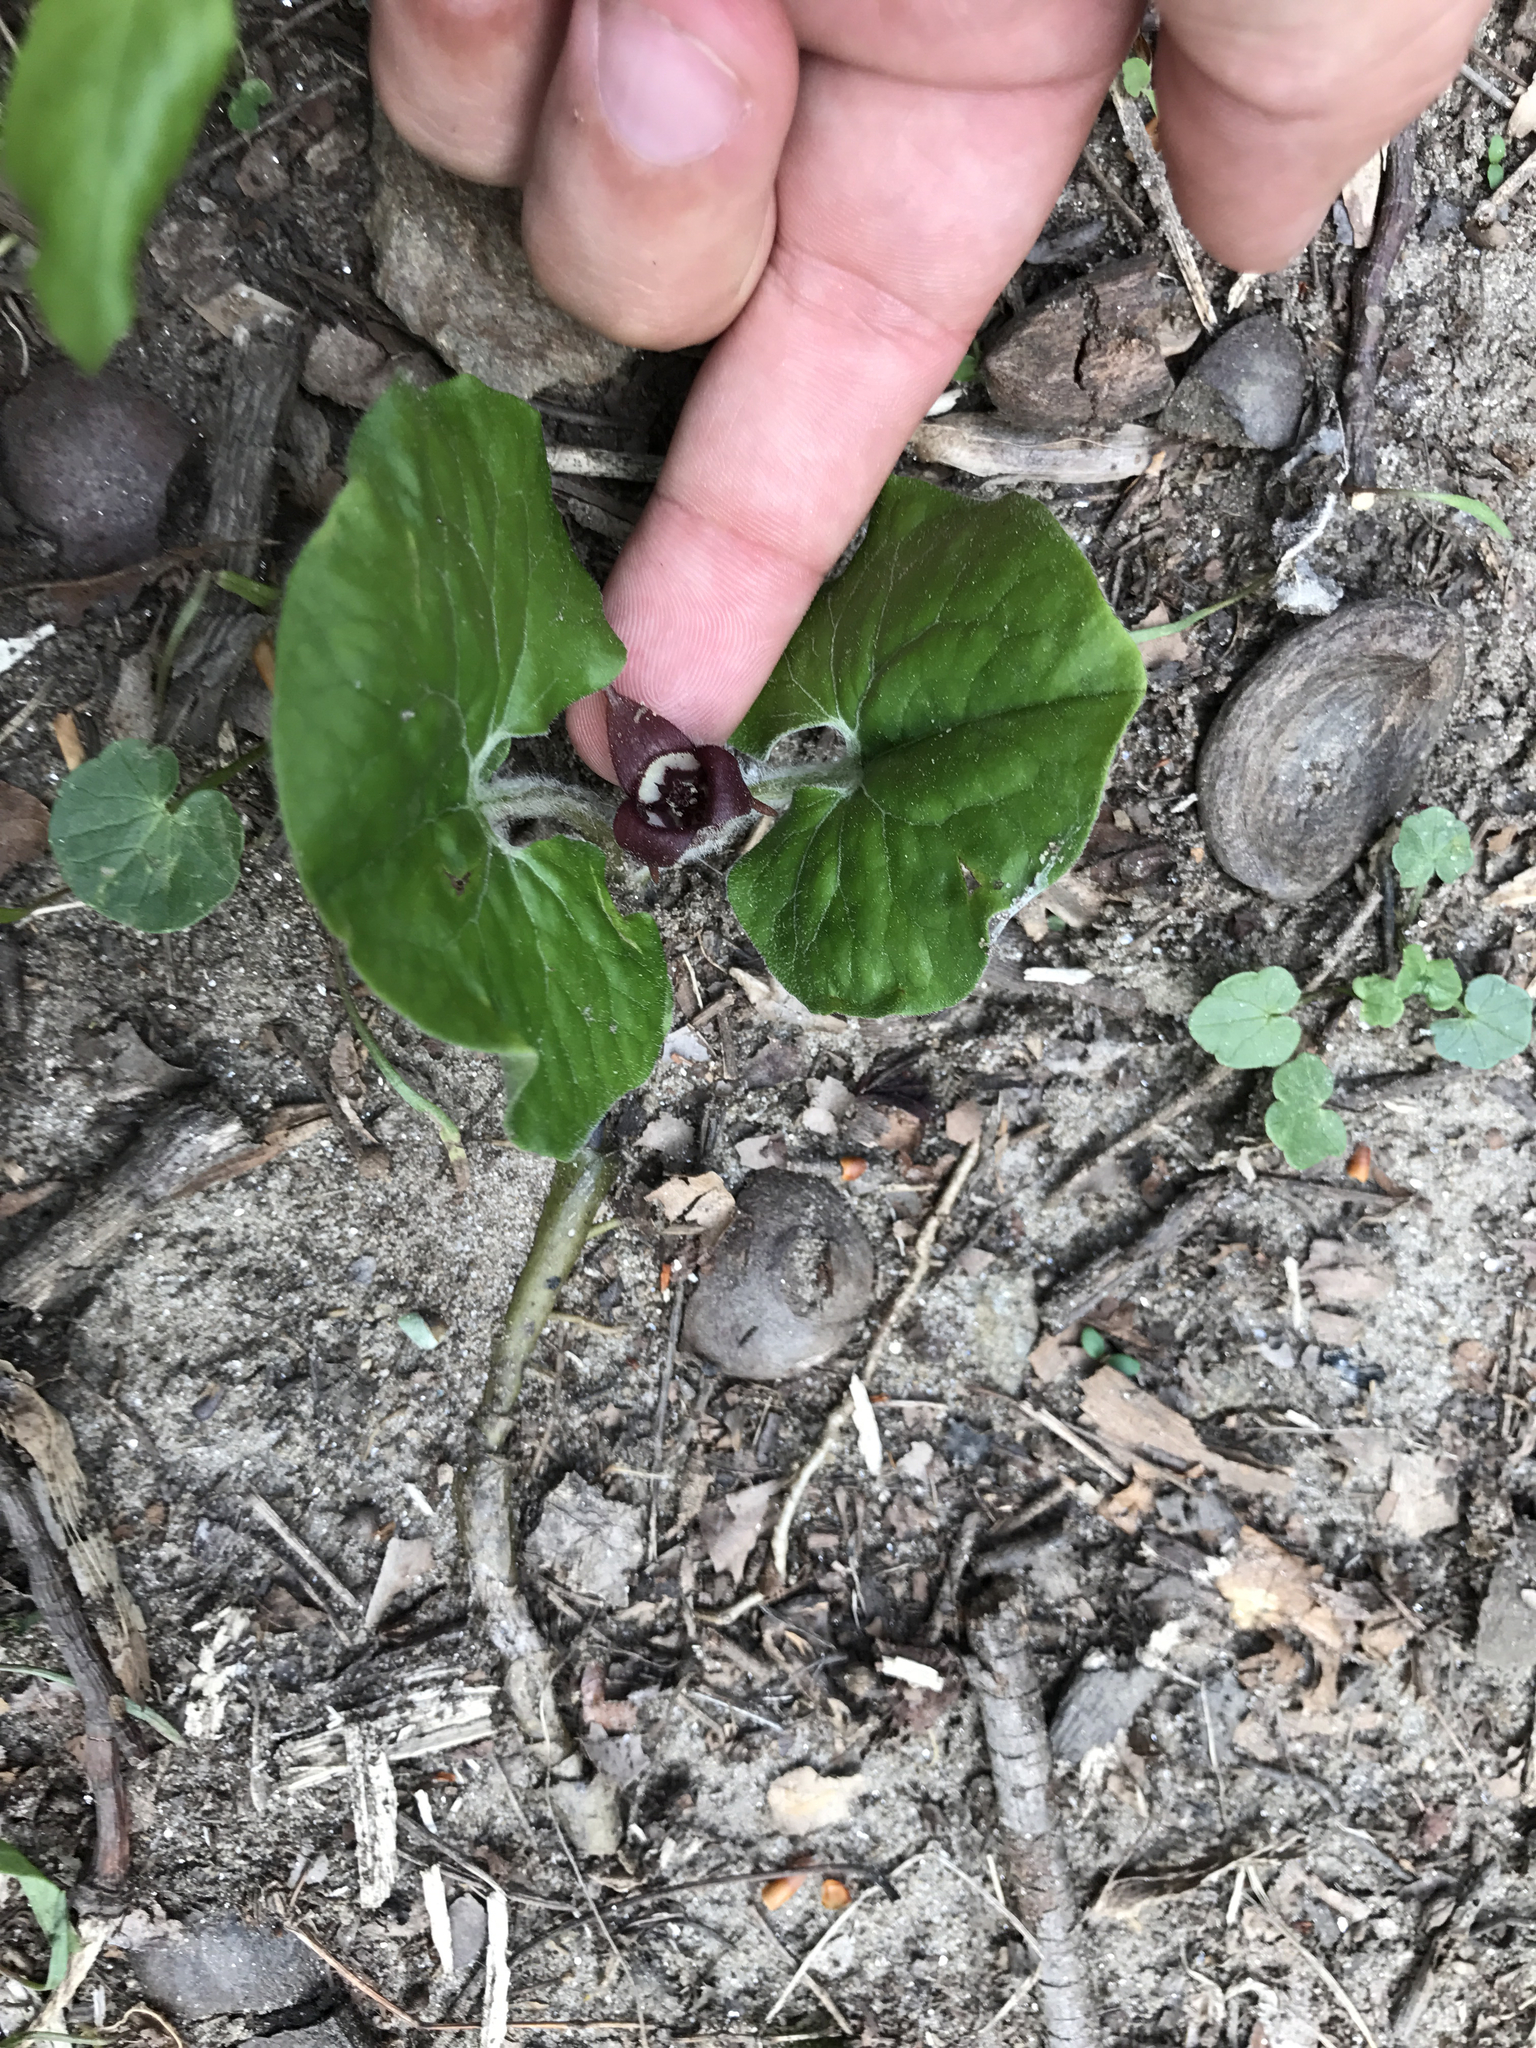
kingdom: Plantae
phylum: Tracheophyta
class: Magnoliopsida
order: Piperales
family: Aristolochiaceae
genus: Asarum
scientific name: Asarum canadense
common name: Wild ginger
